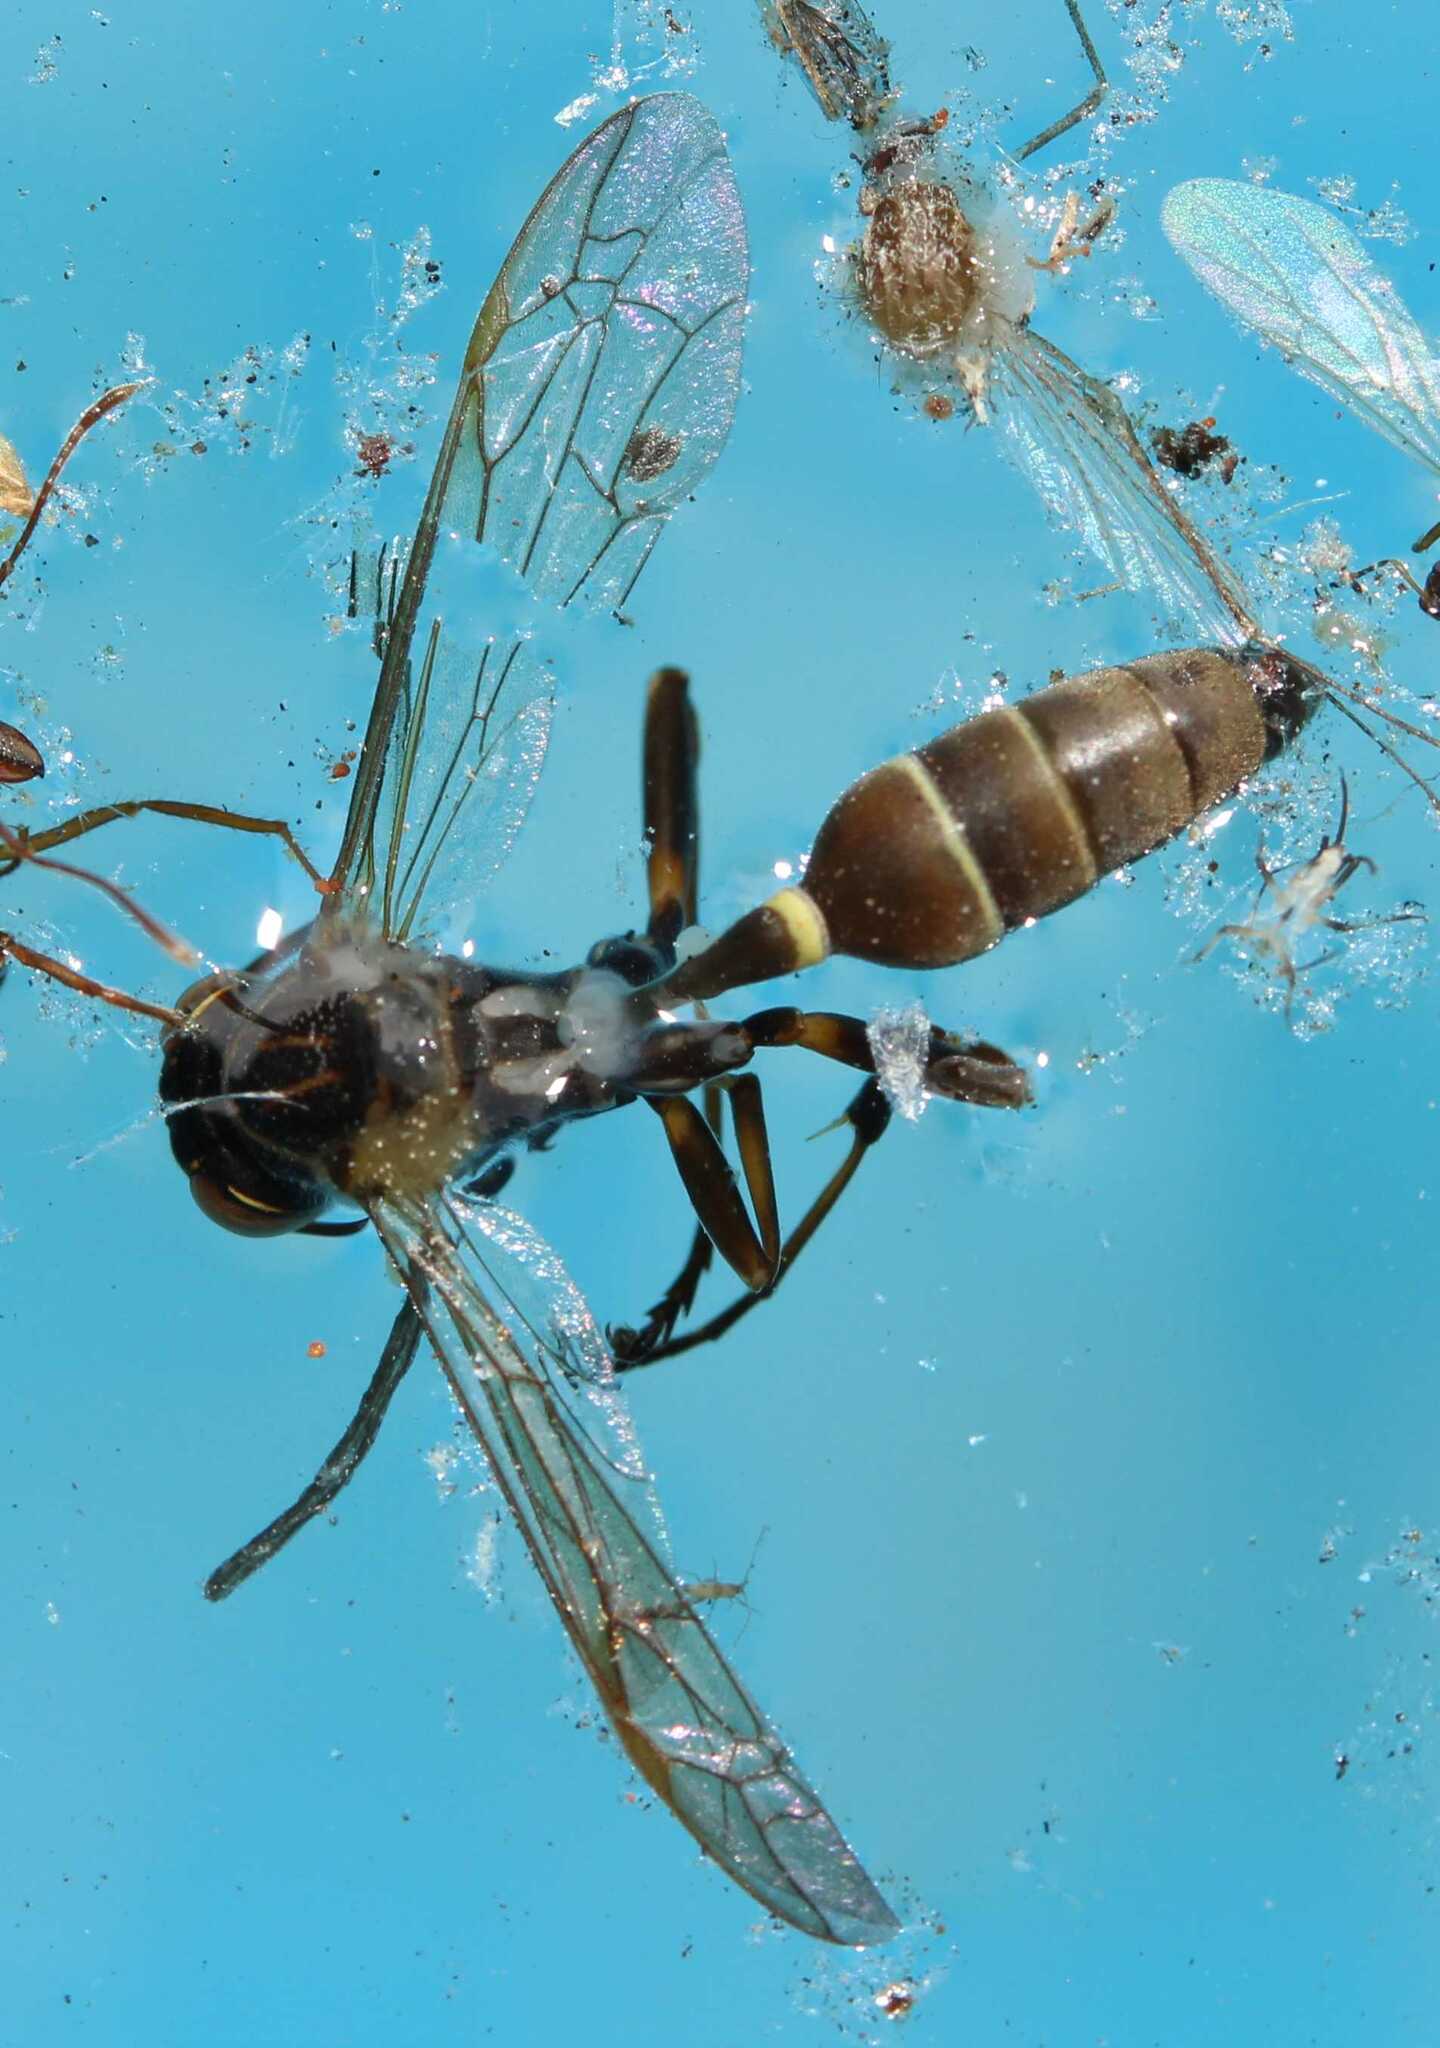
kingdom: Animalia
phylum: Arthropoda
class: Insecta
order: Hymenoptera
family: Vespidae
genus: Mischocyttarus
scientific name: Mischocyttarus mexicanus
